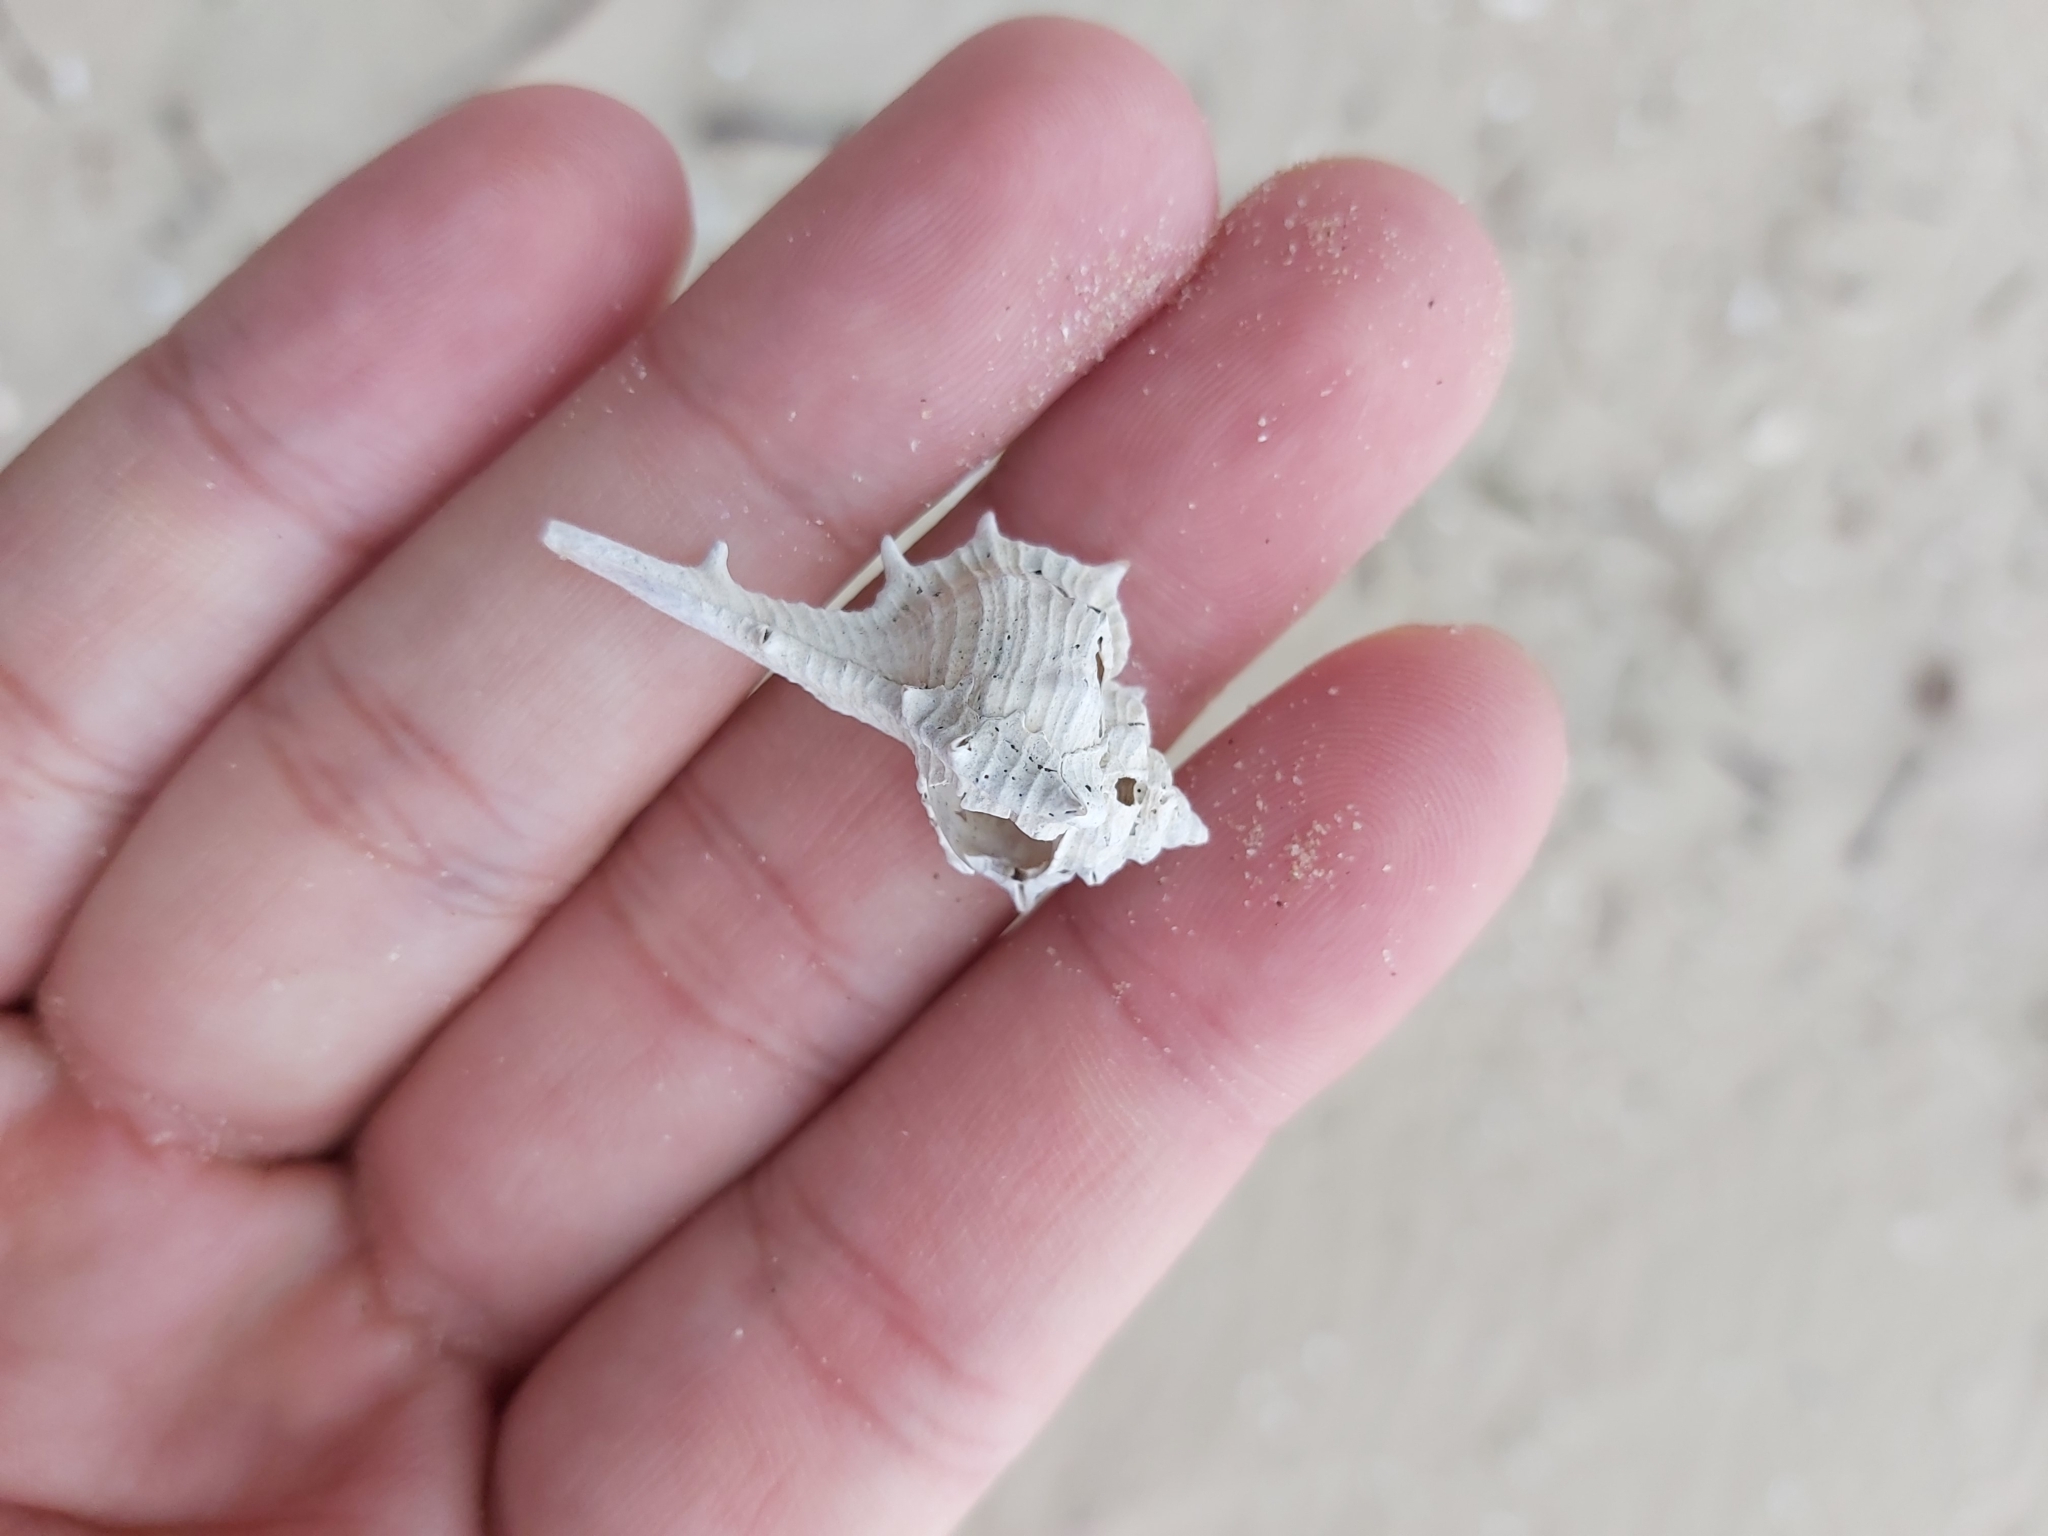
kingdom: Animalia
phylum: Mollusca
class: Gastropoda
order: Neogastropoda
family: Muricidae
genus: Murex
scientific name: Murex brevispina
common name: Brevispined murex
